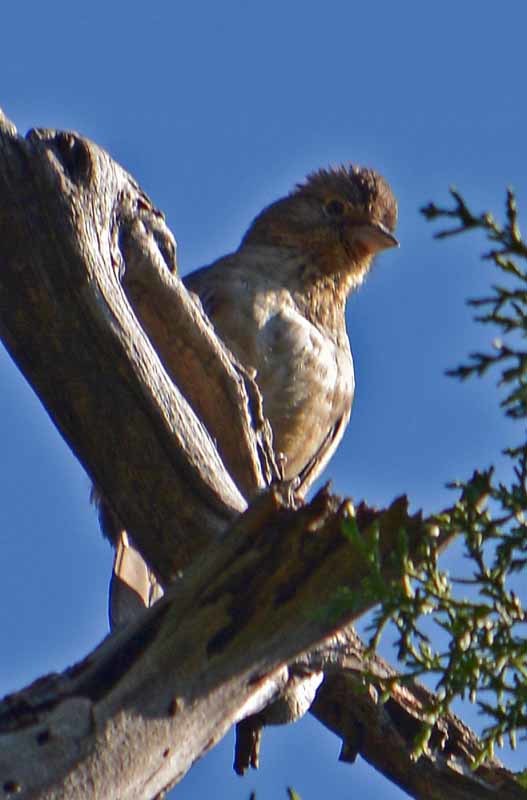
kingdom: Animalia
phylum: Chordata
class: Aves
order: Passeriformes
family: Passerellidae
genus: Melozone
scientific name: Melozone fusca
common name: Canyon towhee
